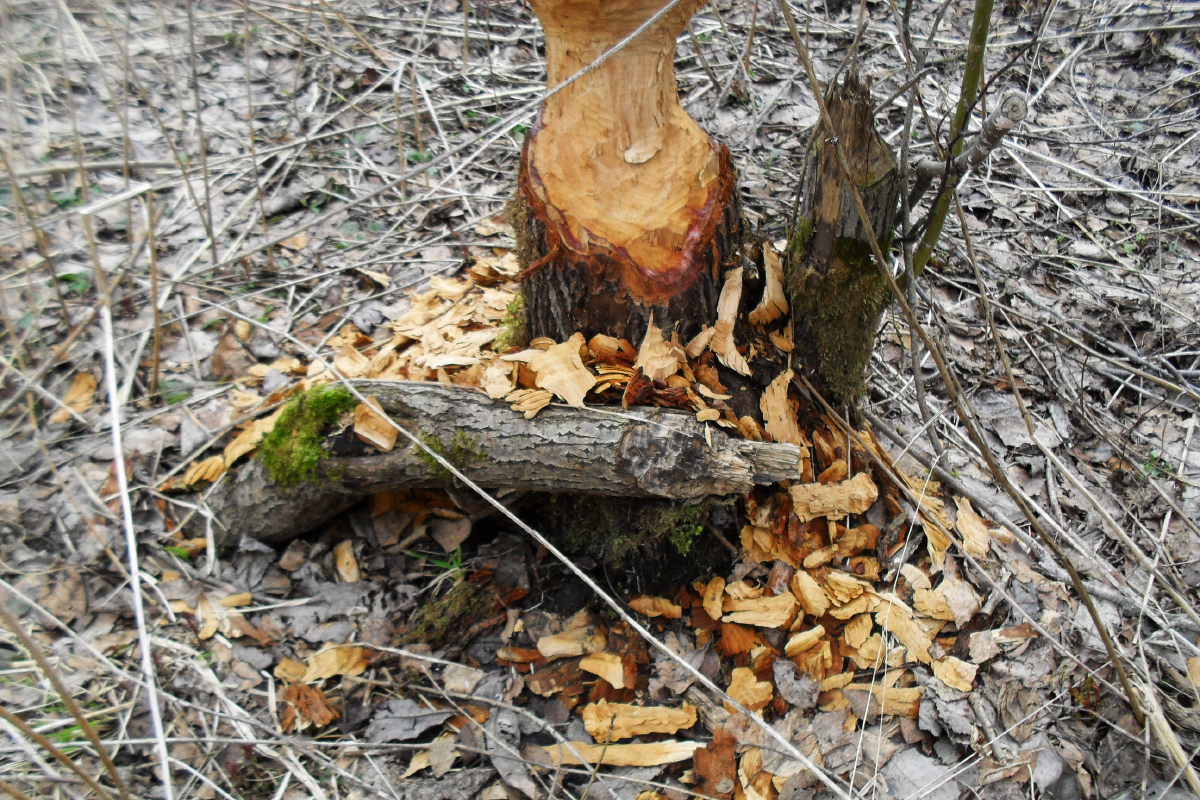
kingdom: Animalia
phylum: Chordata
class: Mammalia
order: Rodentia
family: Castoridae
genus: Castor
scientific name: Castor fiber
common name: Eurasian beaver
